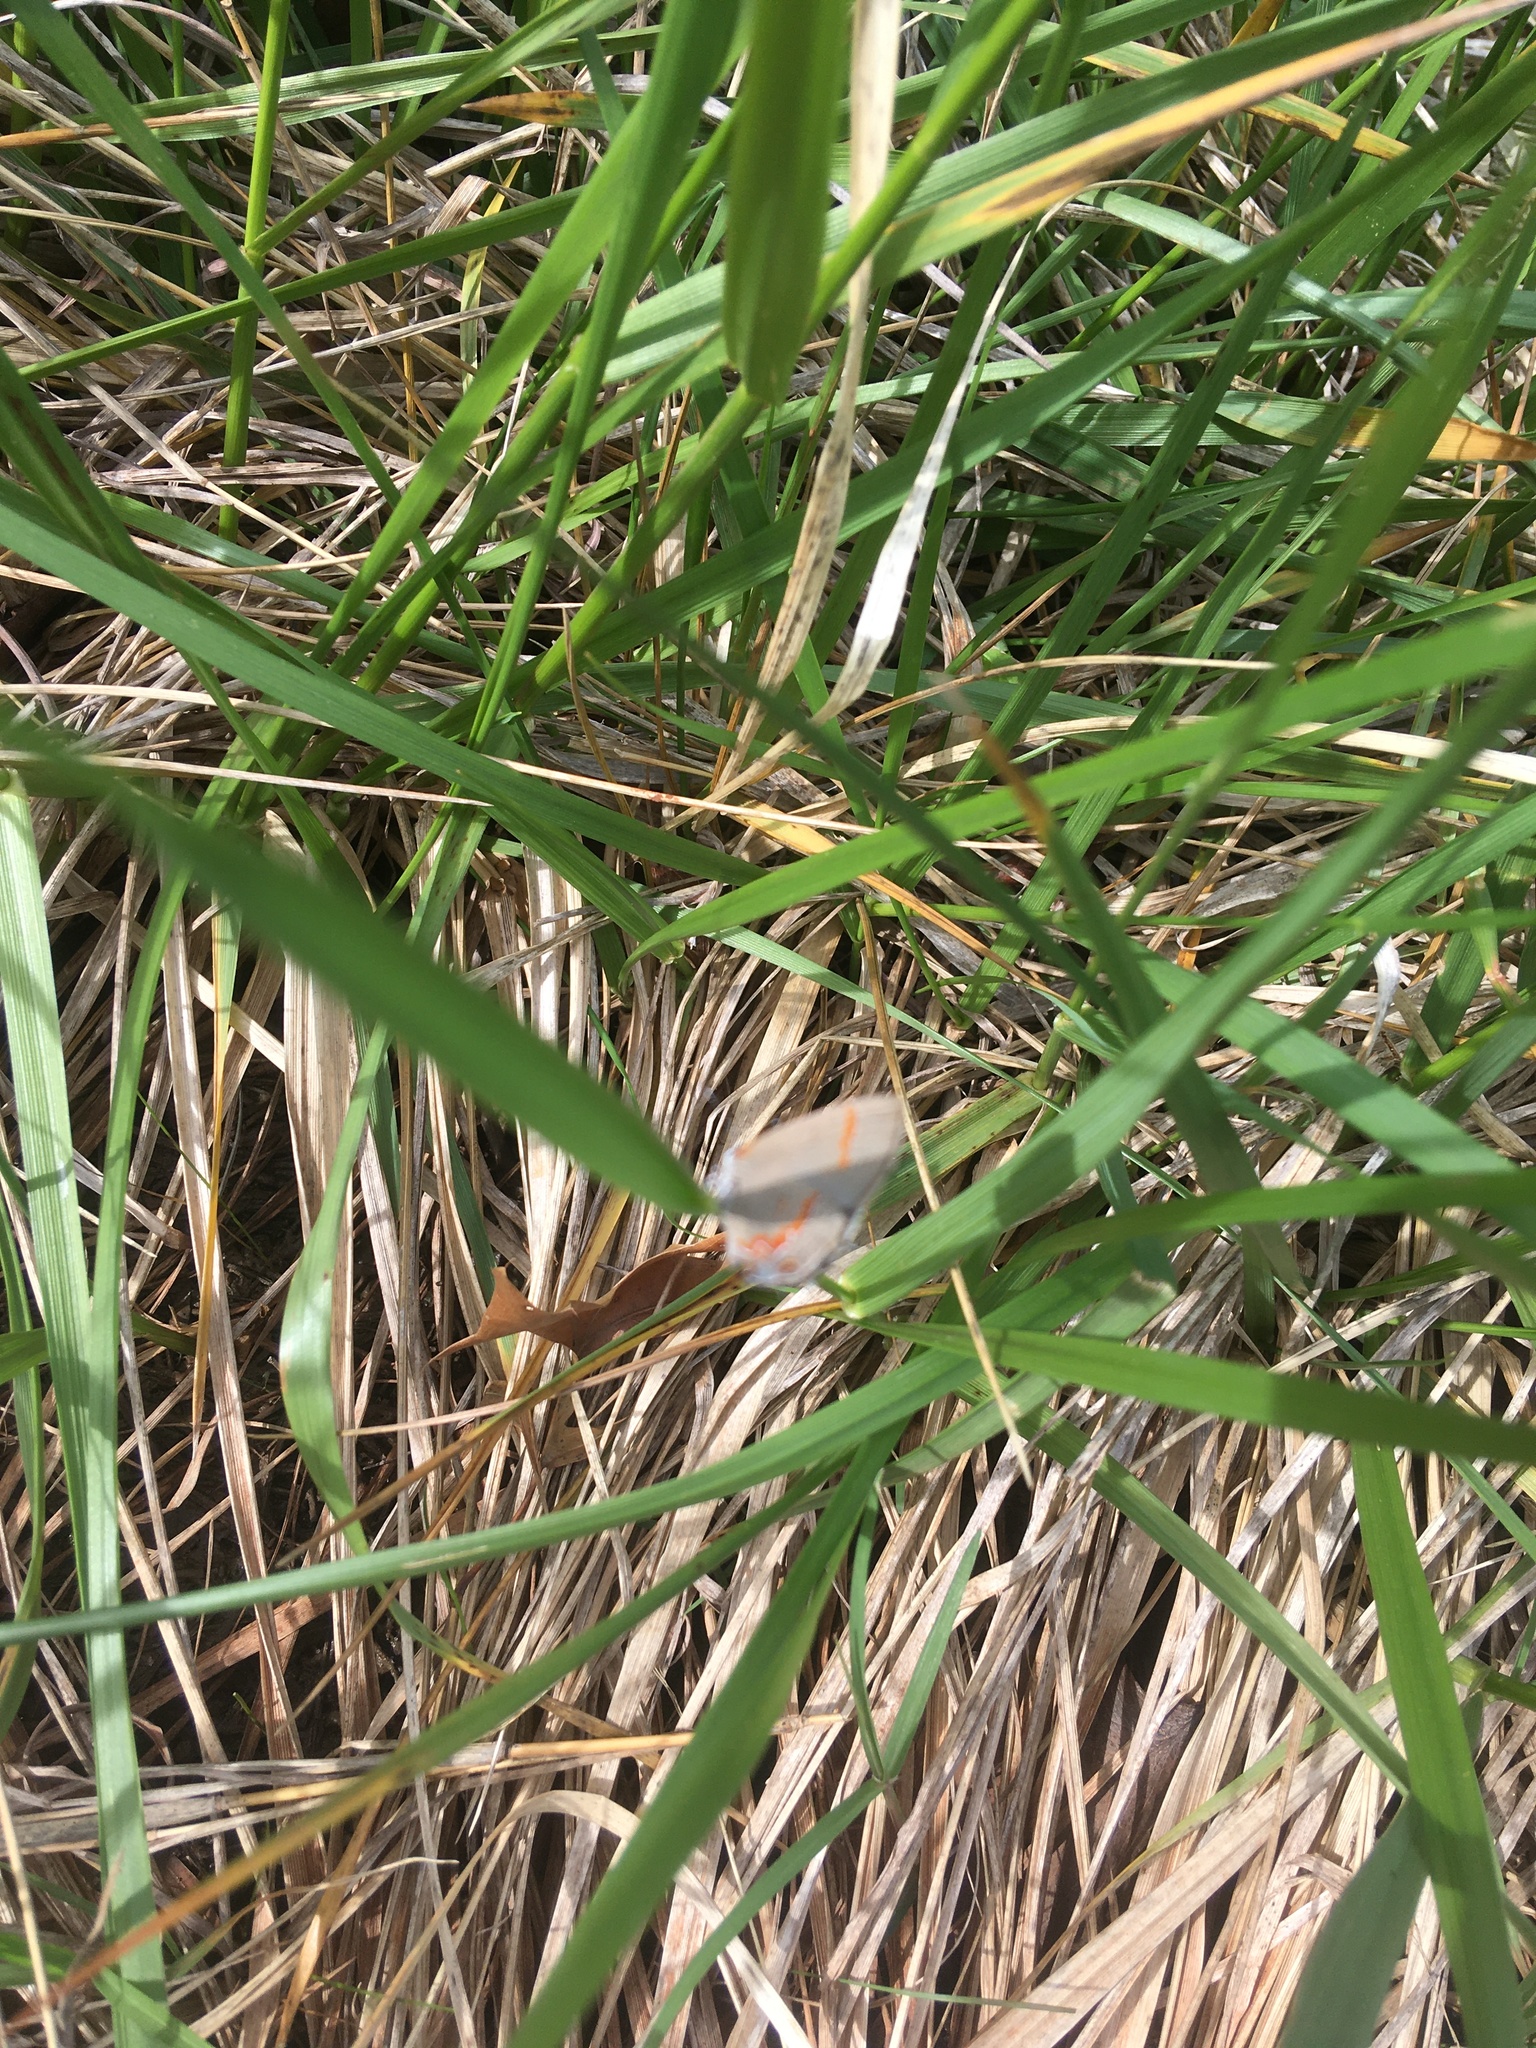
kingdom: Animalia
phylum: Arthropoda
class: Insecta
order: Lepidoptera
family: Lycaenidae
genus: Calycopis
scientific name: Calycopis cecrops
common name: Red-banded hairstreak
